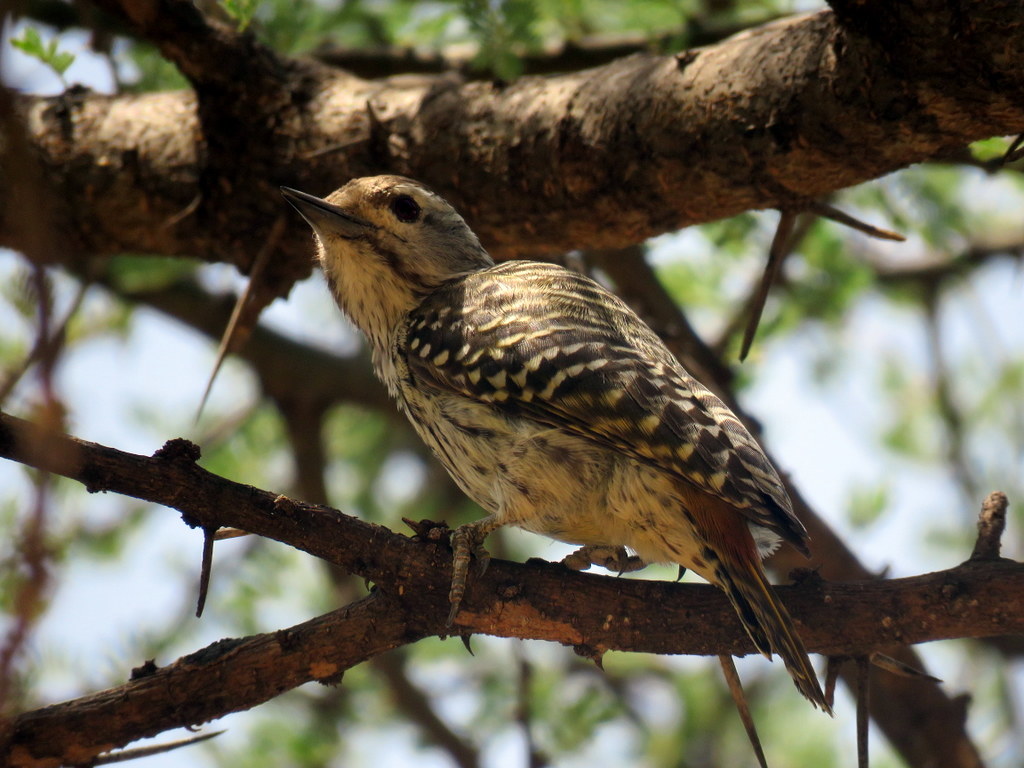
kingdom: Animalia
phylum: Chordata
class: Aves
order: Piciformes
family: Picidae
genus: Dendropicos
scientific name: Dendropicos fuscescens
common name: Cardinal woodpecker
